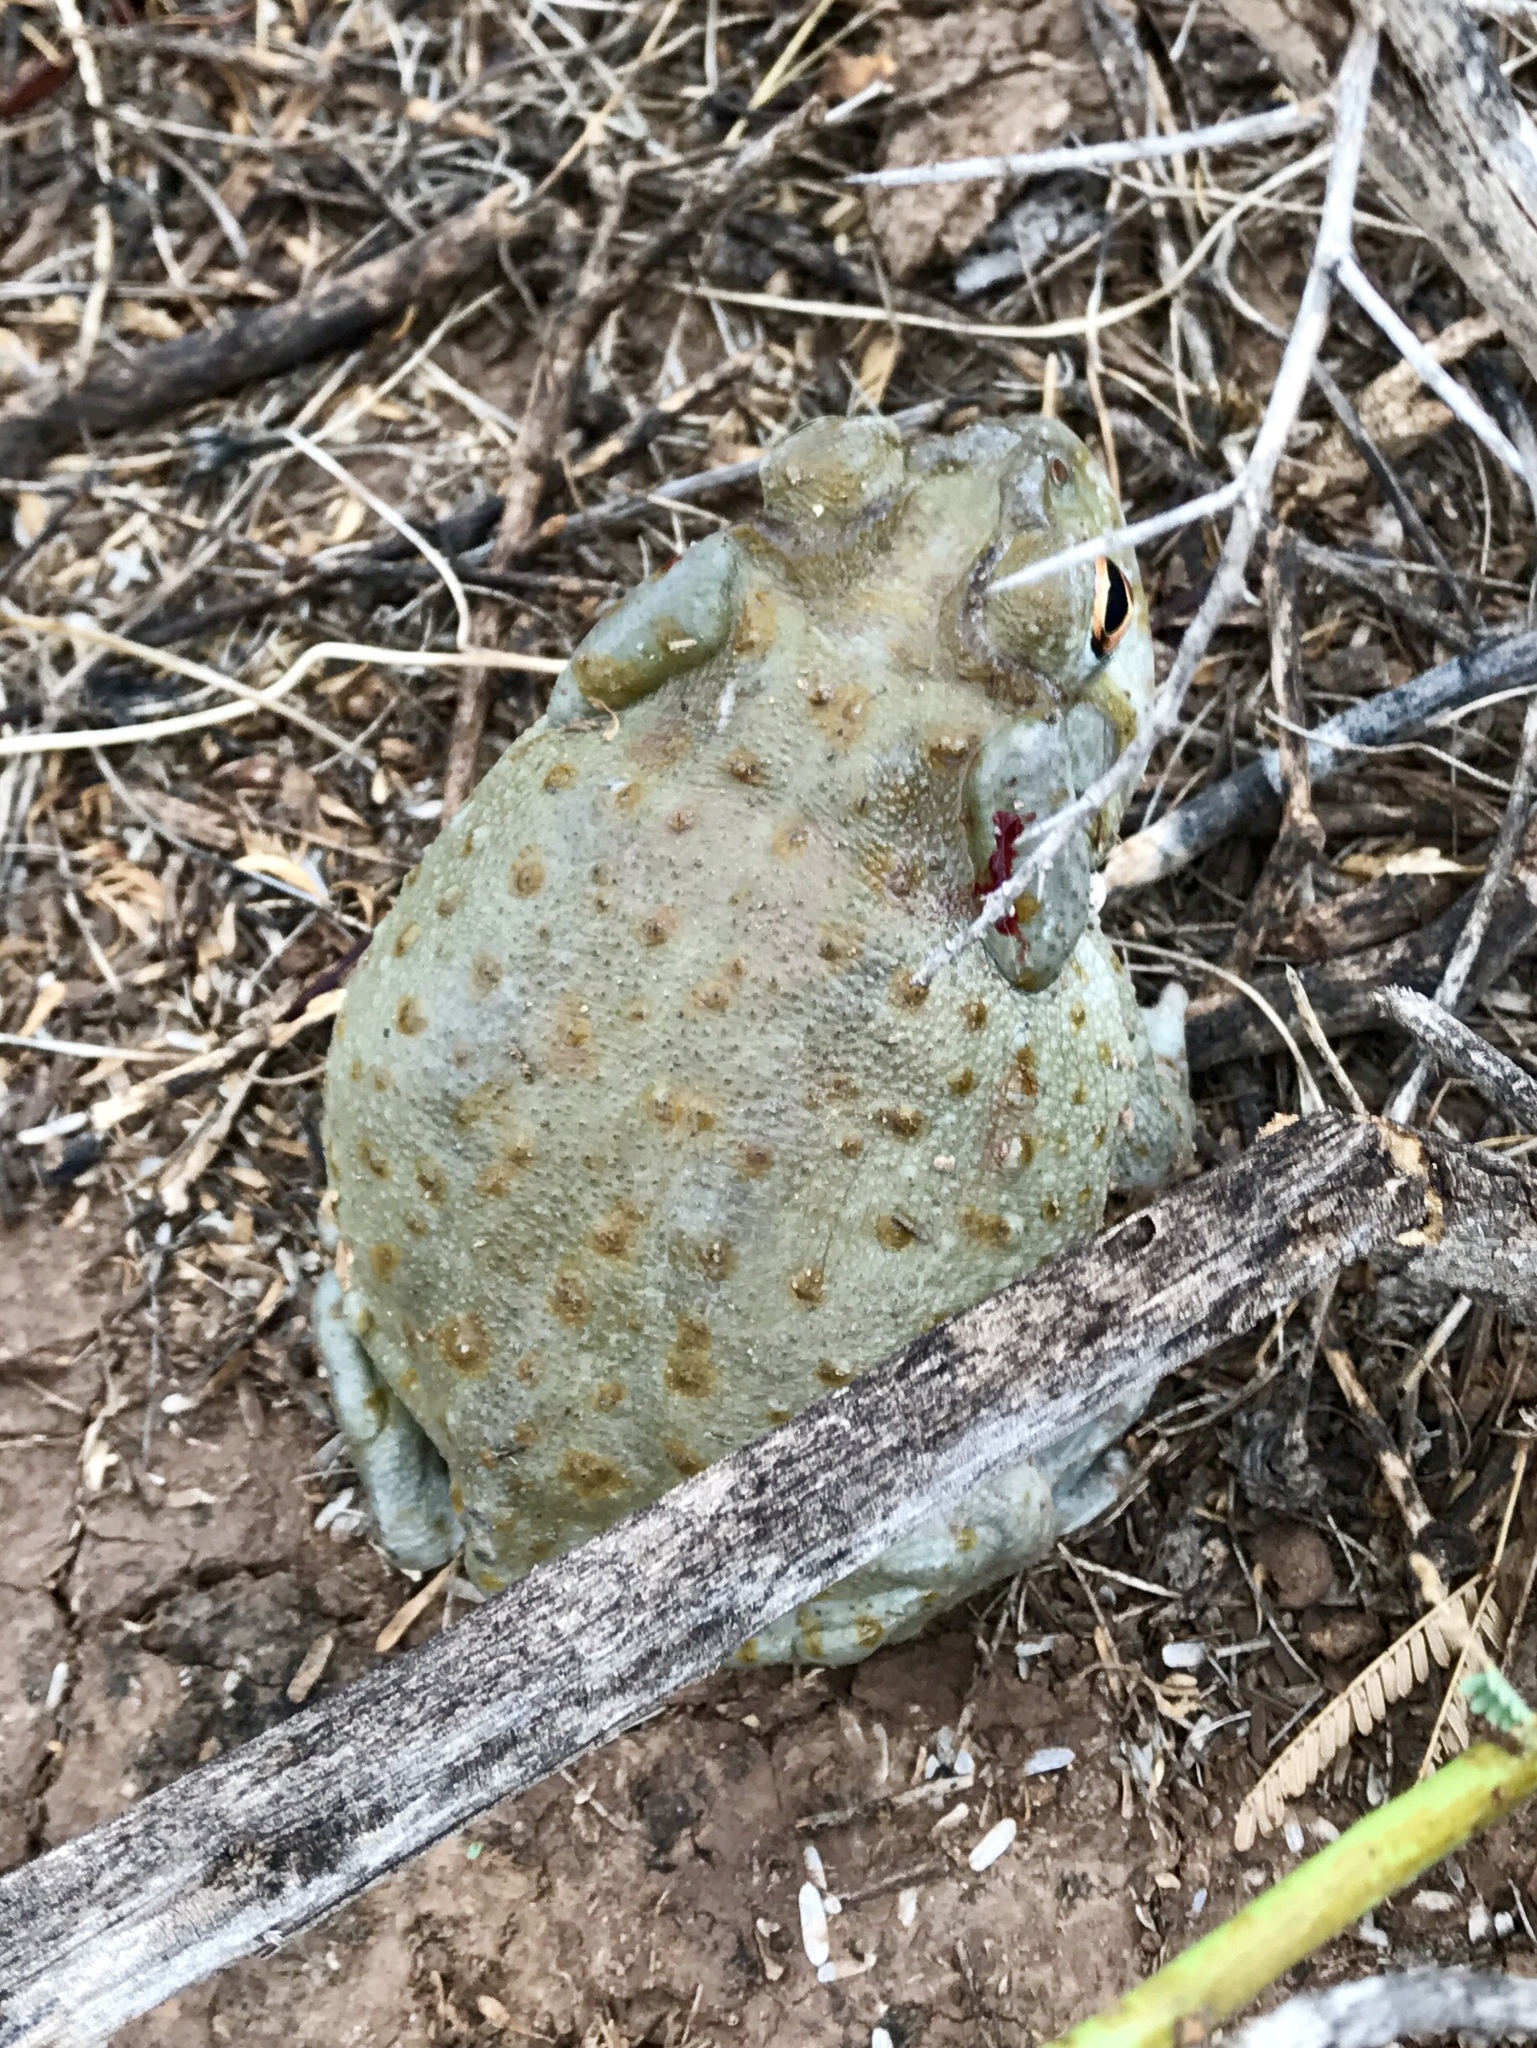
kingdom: Animalia
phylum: Chordata
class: Amphibia
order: Anura
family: Bufonidae
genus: Incilius
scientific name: Incilius alvarius
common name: Sonoran desert toad
